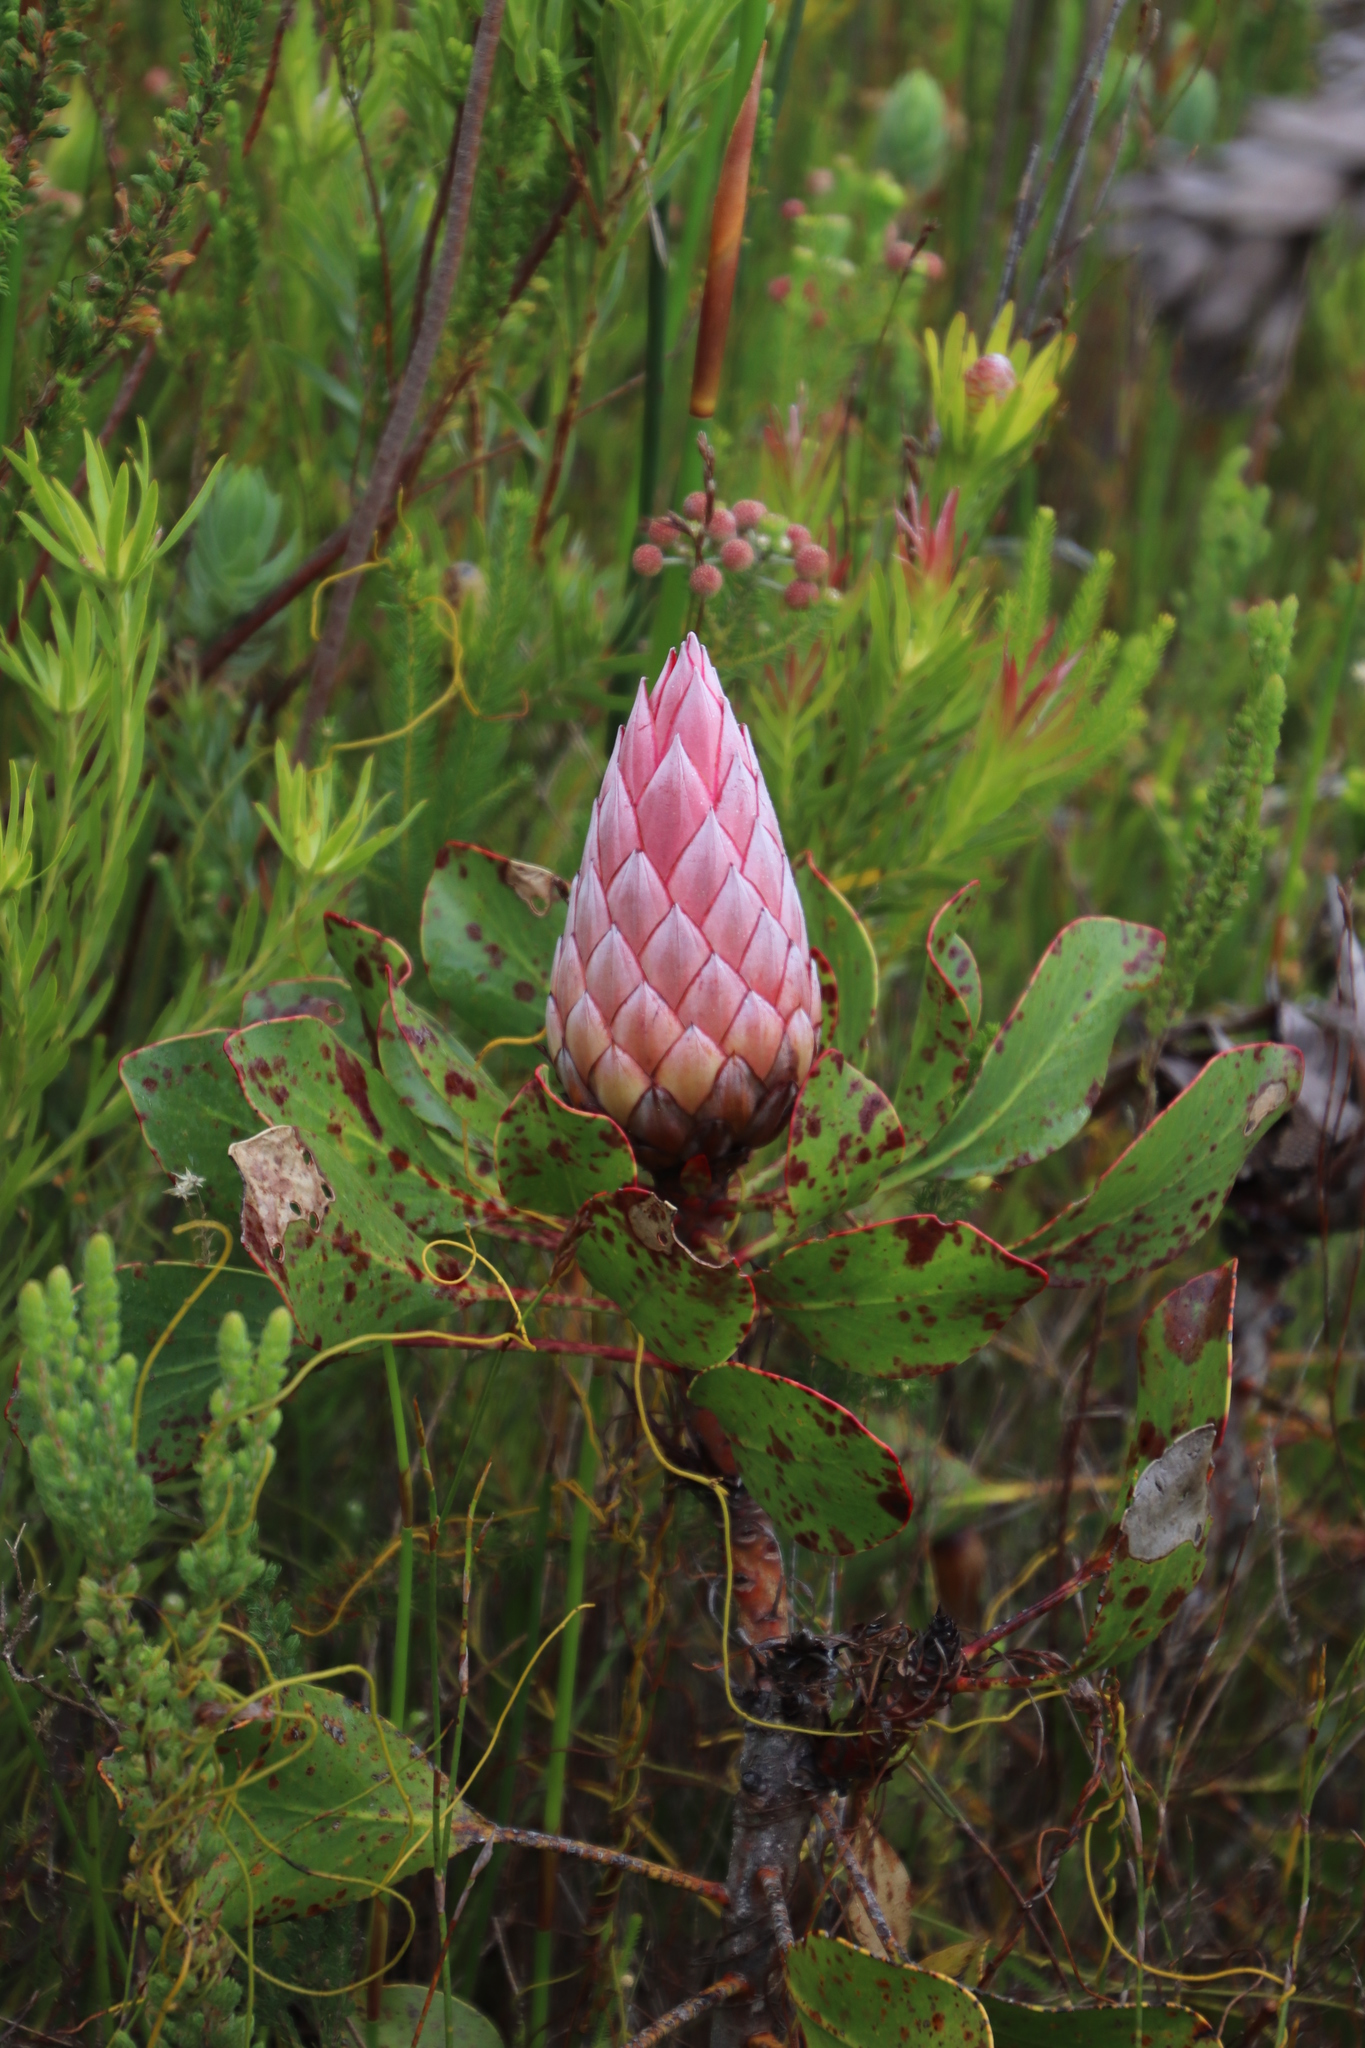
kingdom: Plantae
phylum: Tracheophyta
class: Magnoliopsida
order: Proteales
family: Proteaceae
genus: Protea
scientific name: Protea cynaroides
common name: King protea
